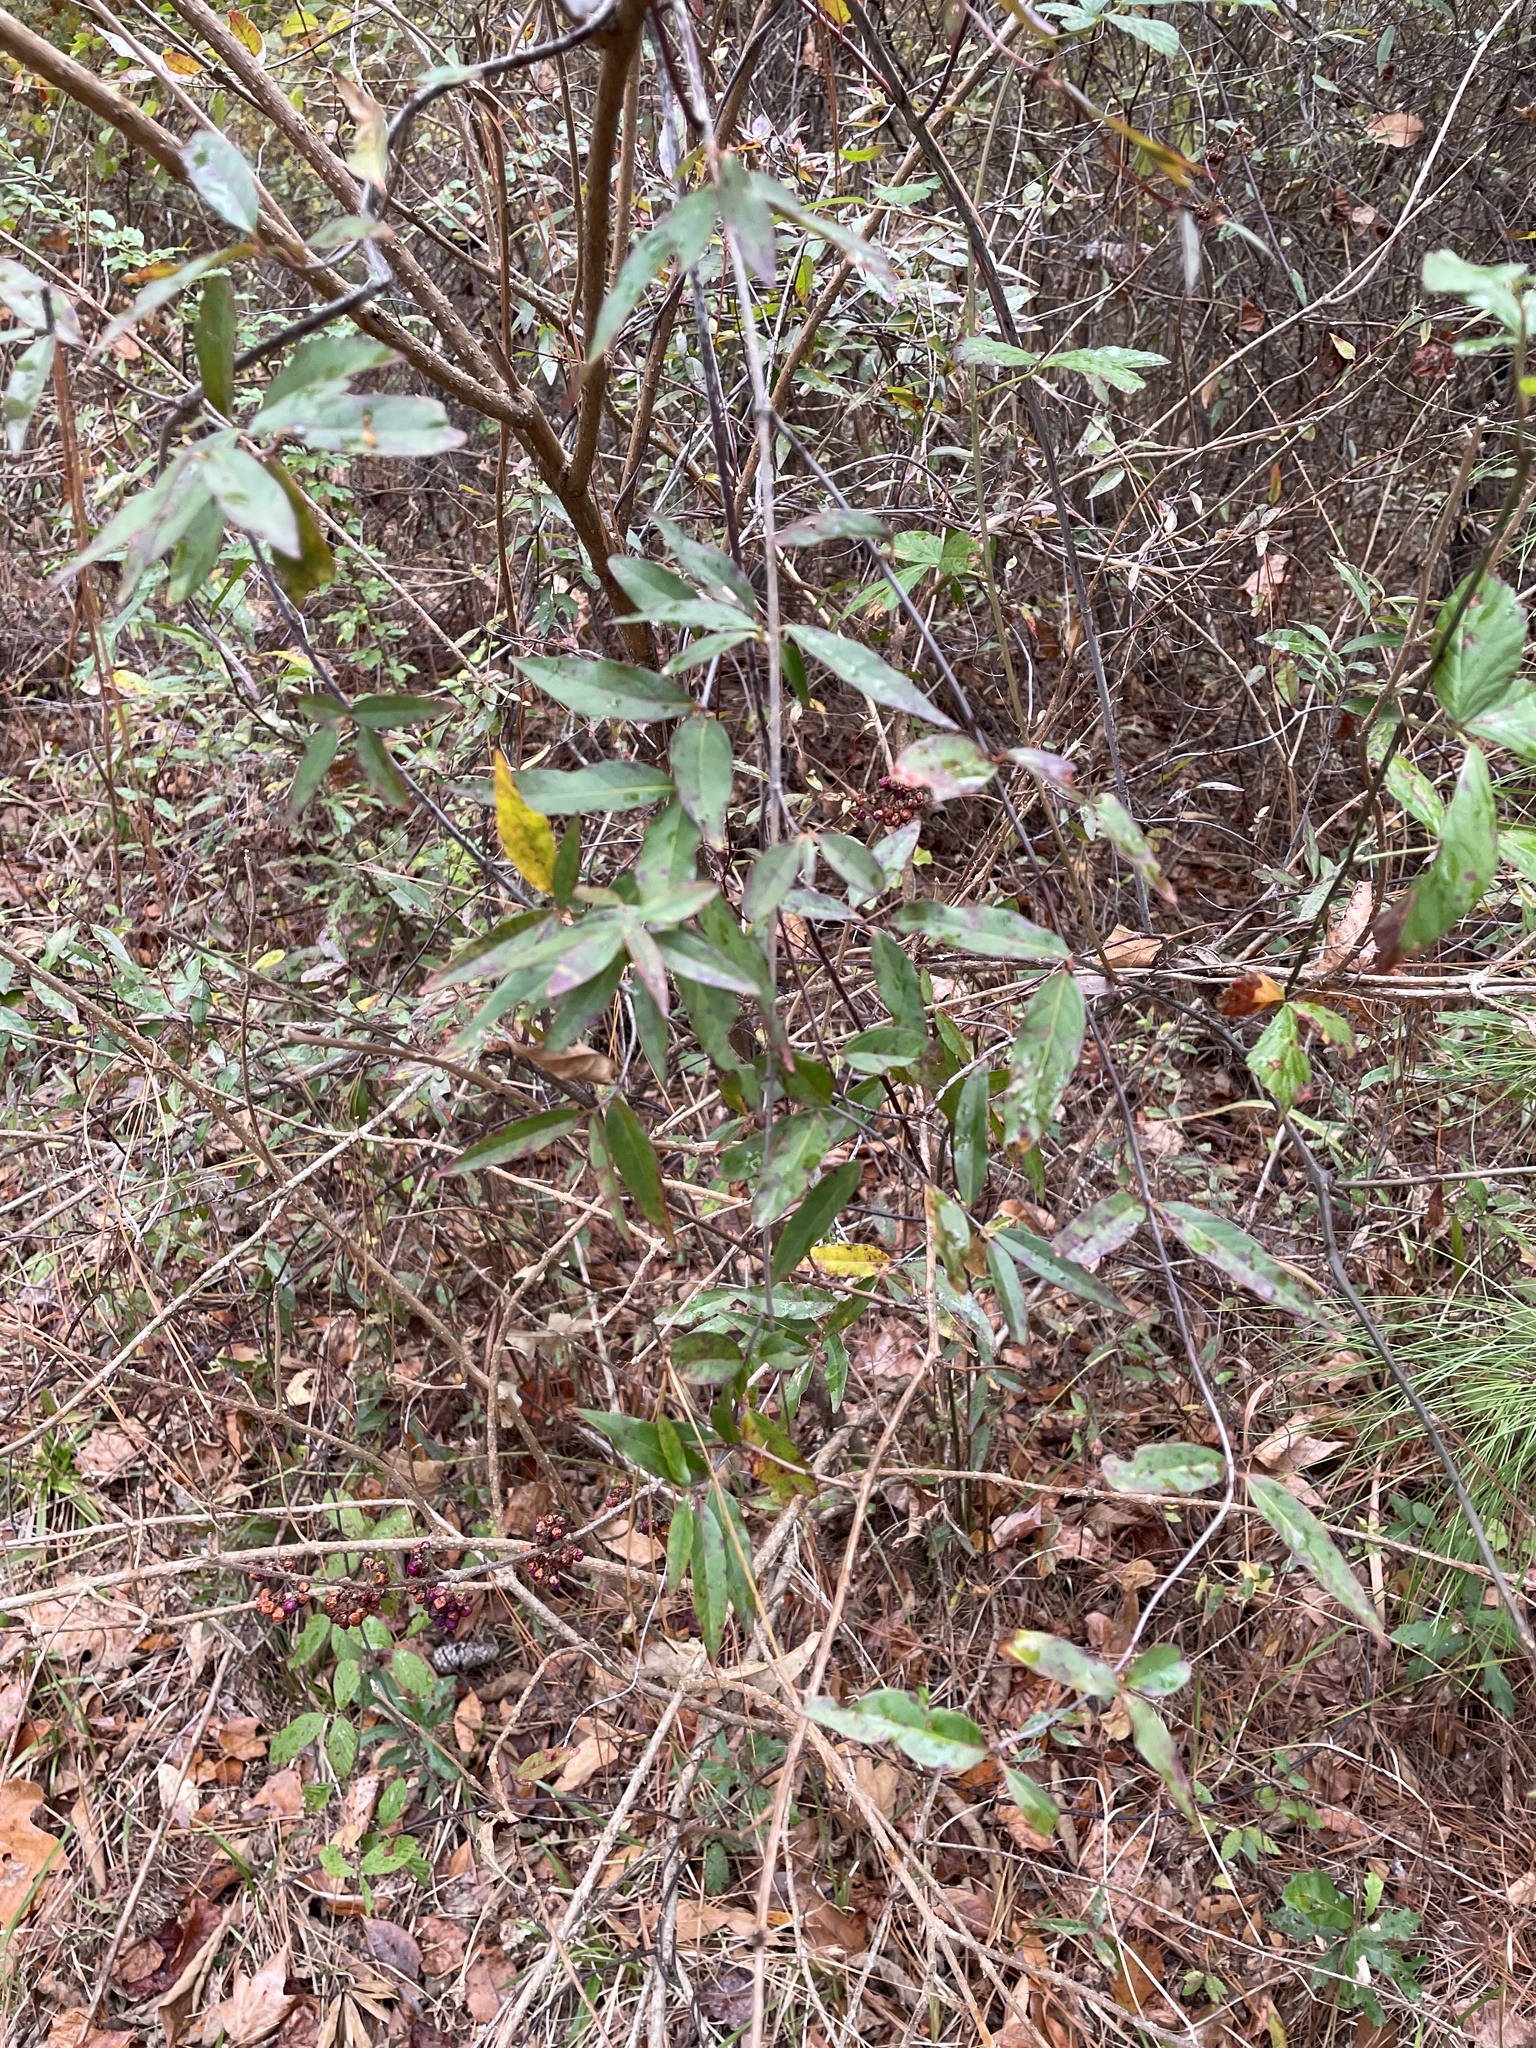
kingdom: Plantae
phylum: Tracheophyta
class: Magnoliopsida
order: Gentianales
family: Gelsemiaceae
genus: Gelsemium
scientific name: Gelsemium sempervirens
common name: Carolina-jasmine
